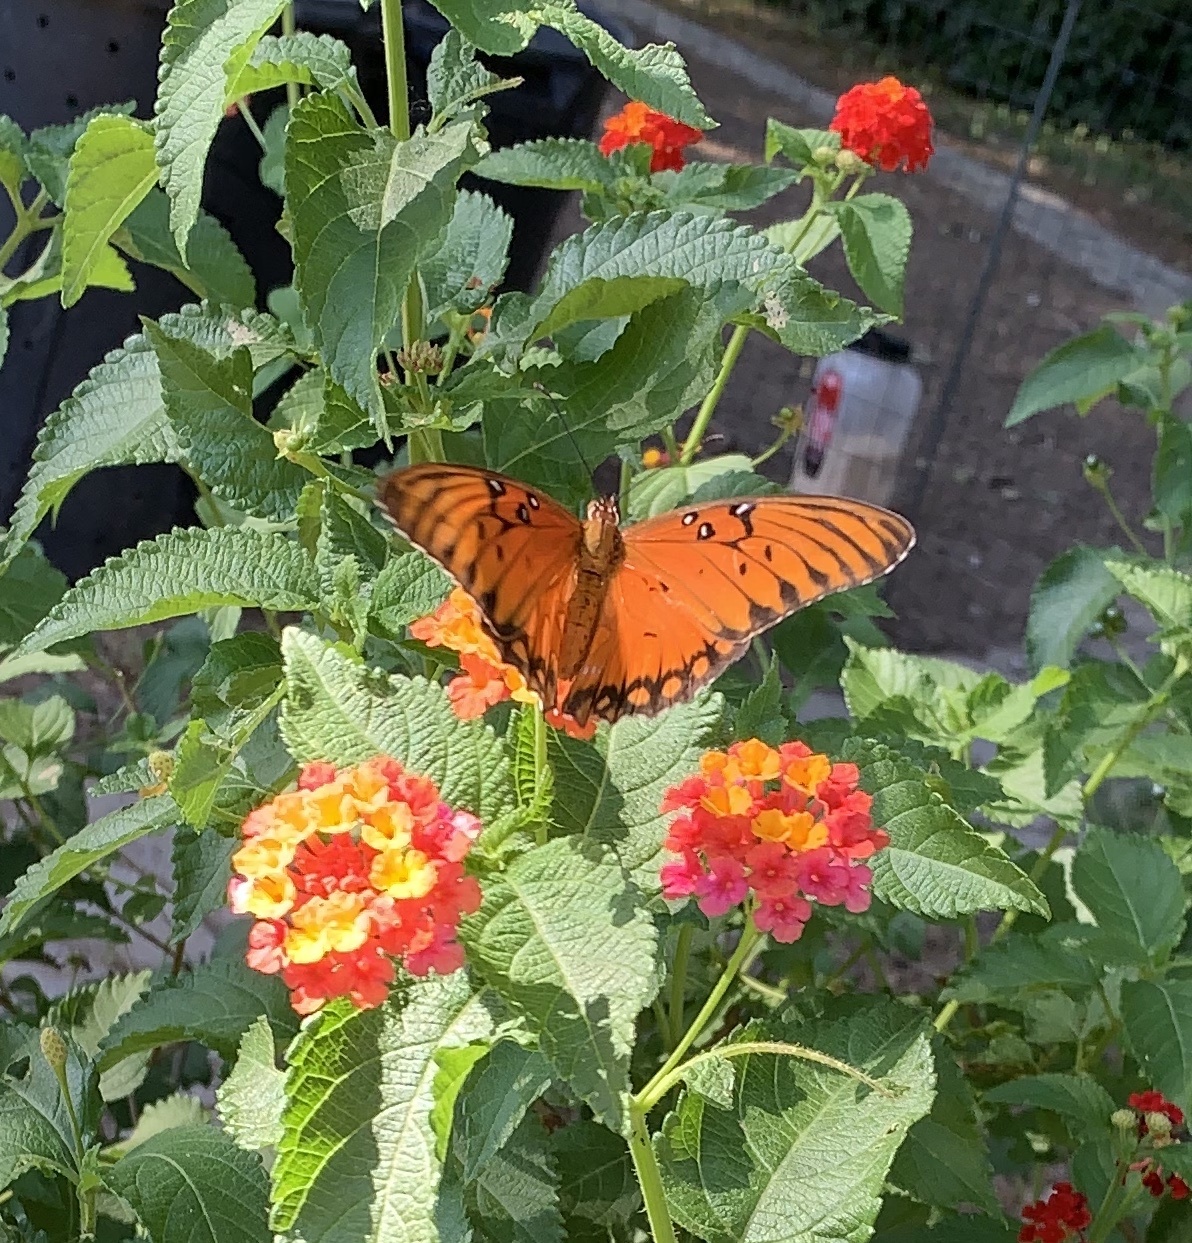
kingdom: Animalia
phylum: Arthropoda
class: Insecta
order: Lepidoptera
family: Nymphalidae
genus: Dione
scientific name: Dione vanillae
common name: Gulf fritillary
